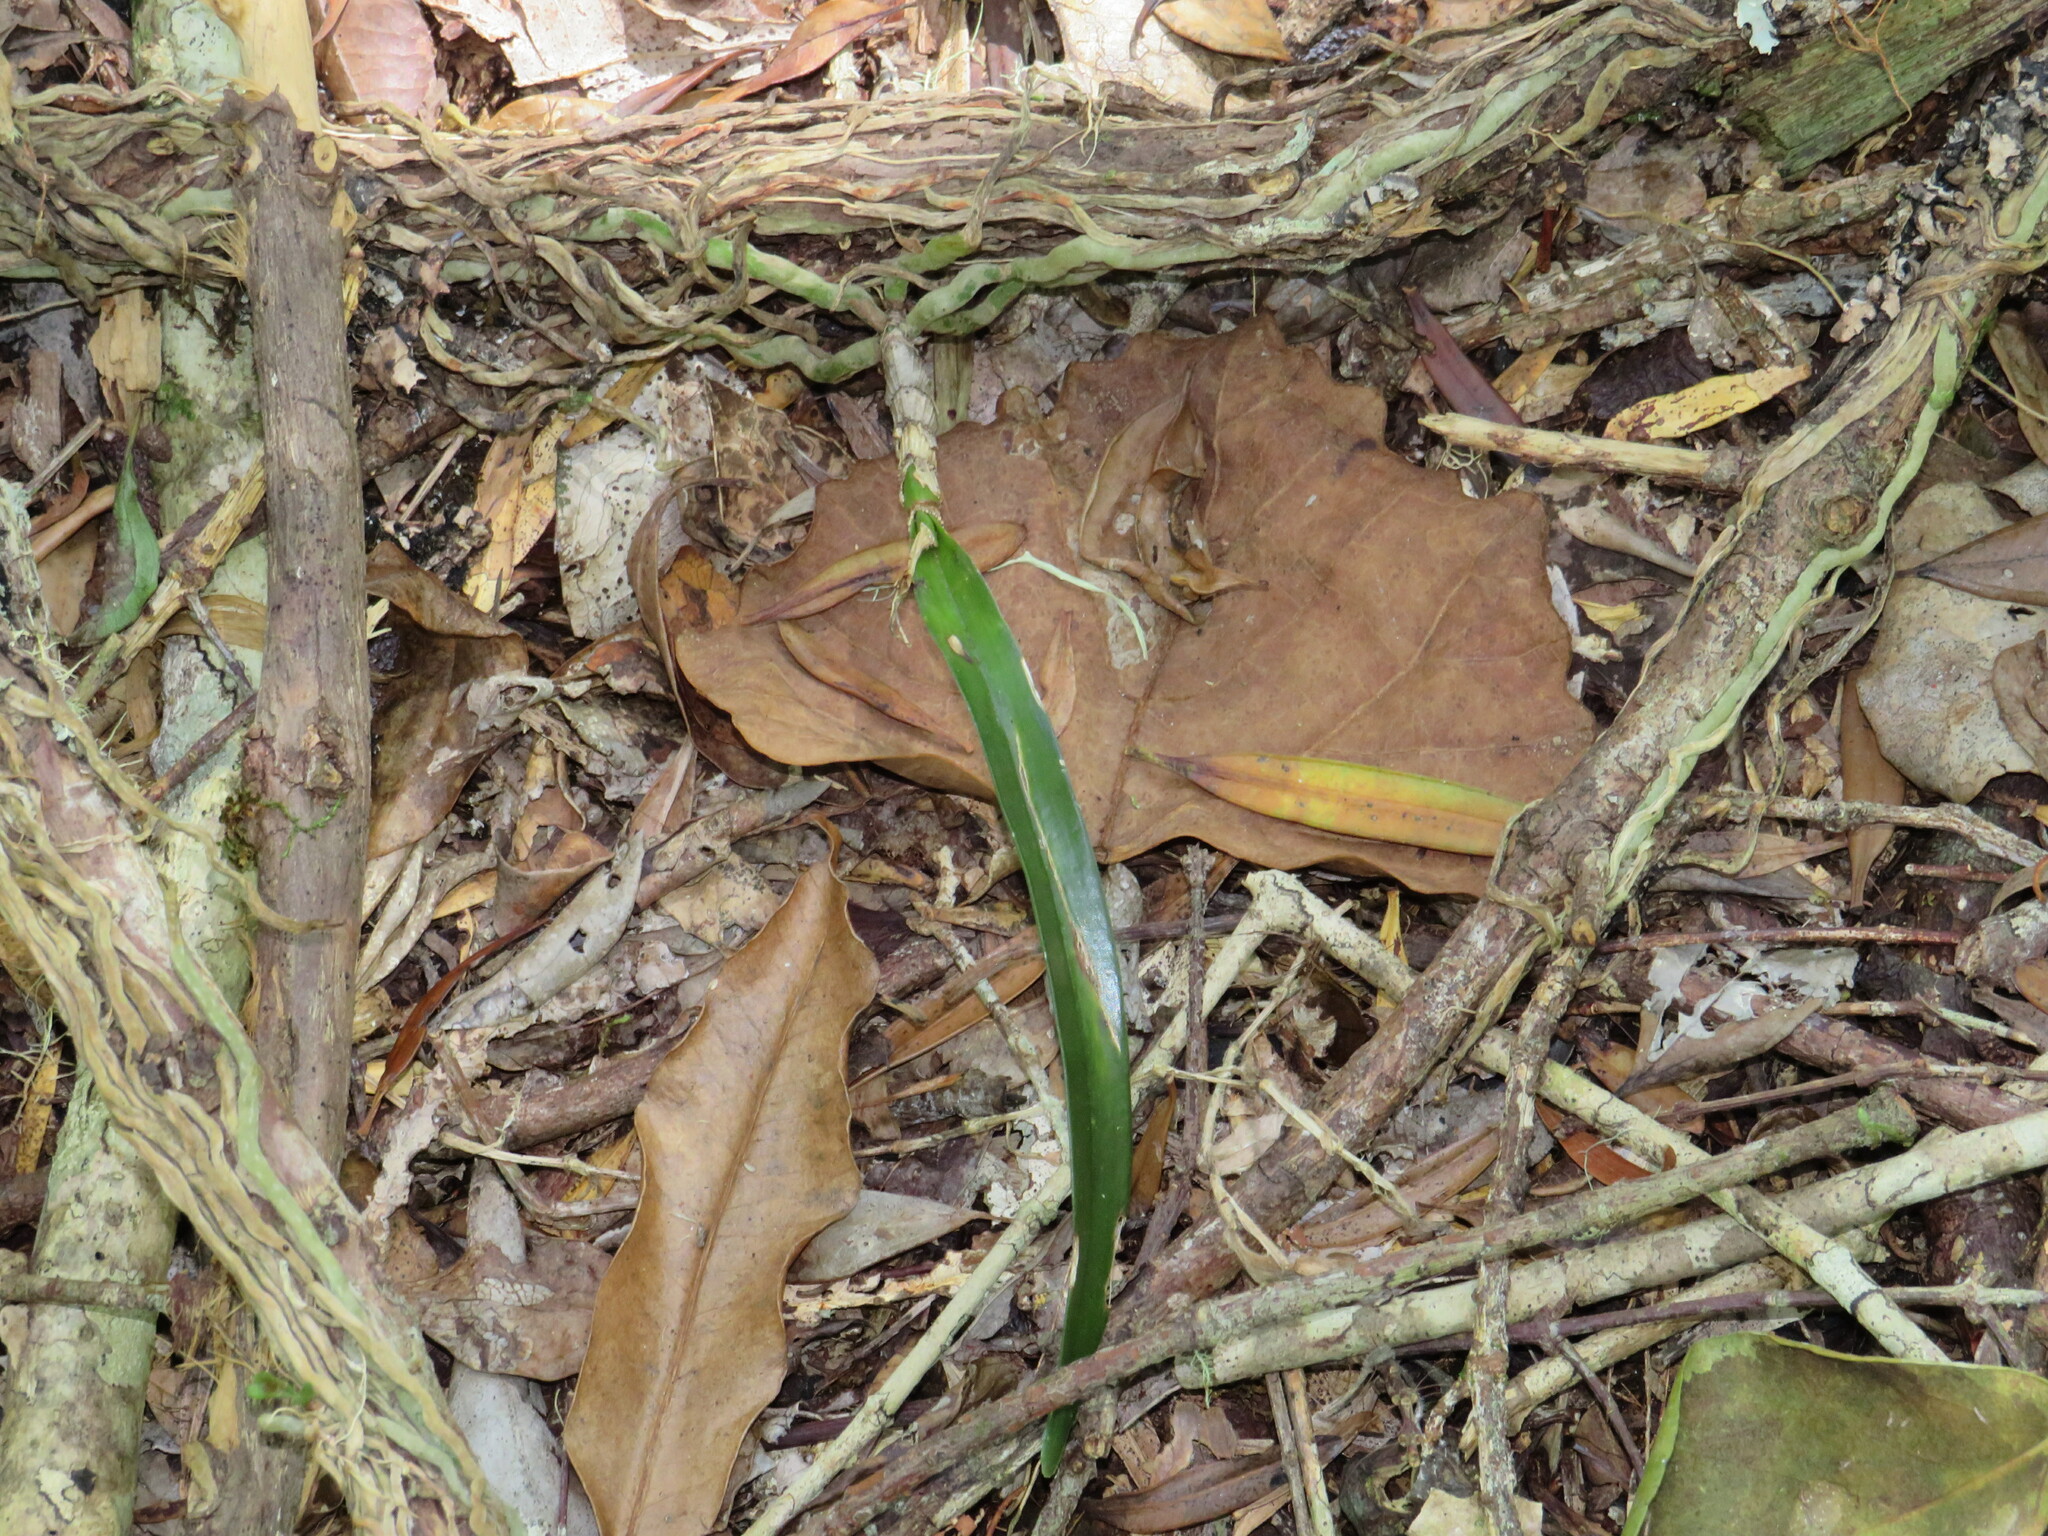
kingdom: Plantae
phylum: Tracheophyta
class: Liliopsida
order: Asparagales
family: Orchidaceae
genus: Tridactyle
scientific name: Tridactyle bicaudata
